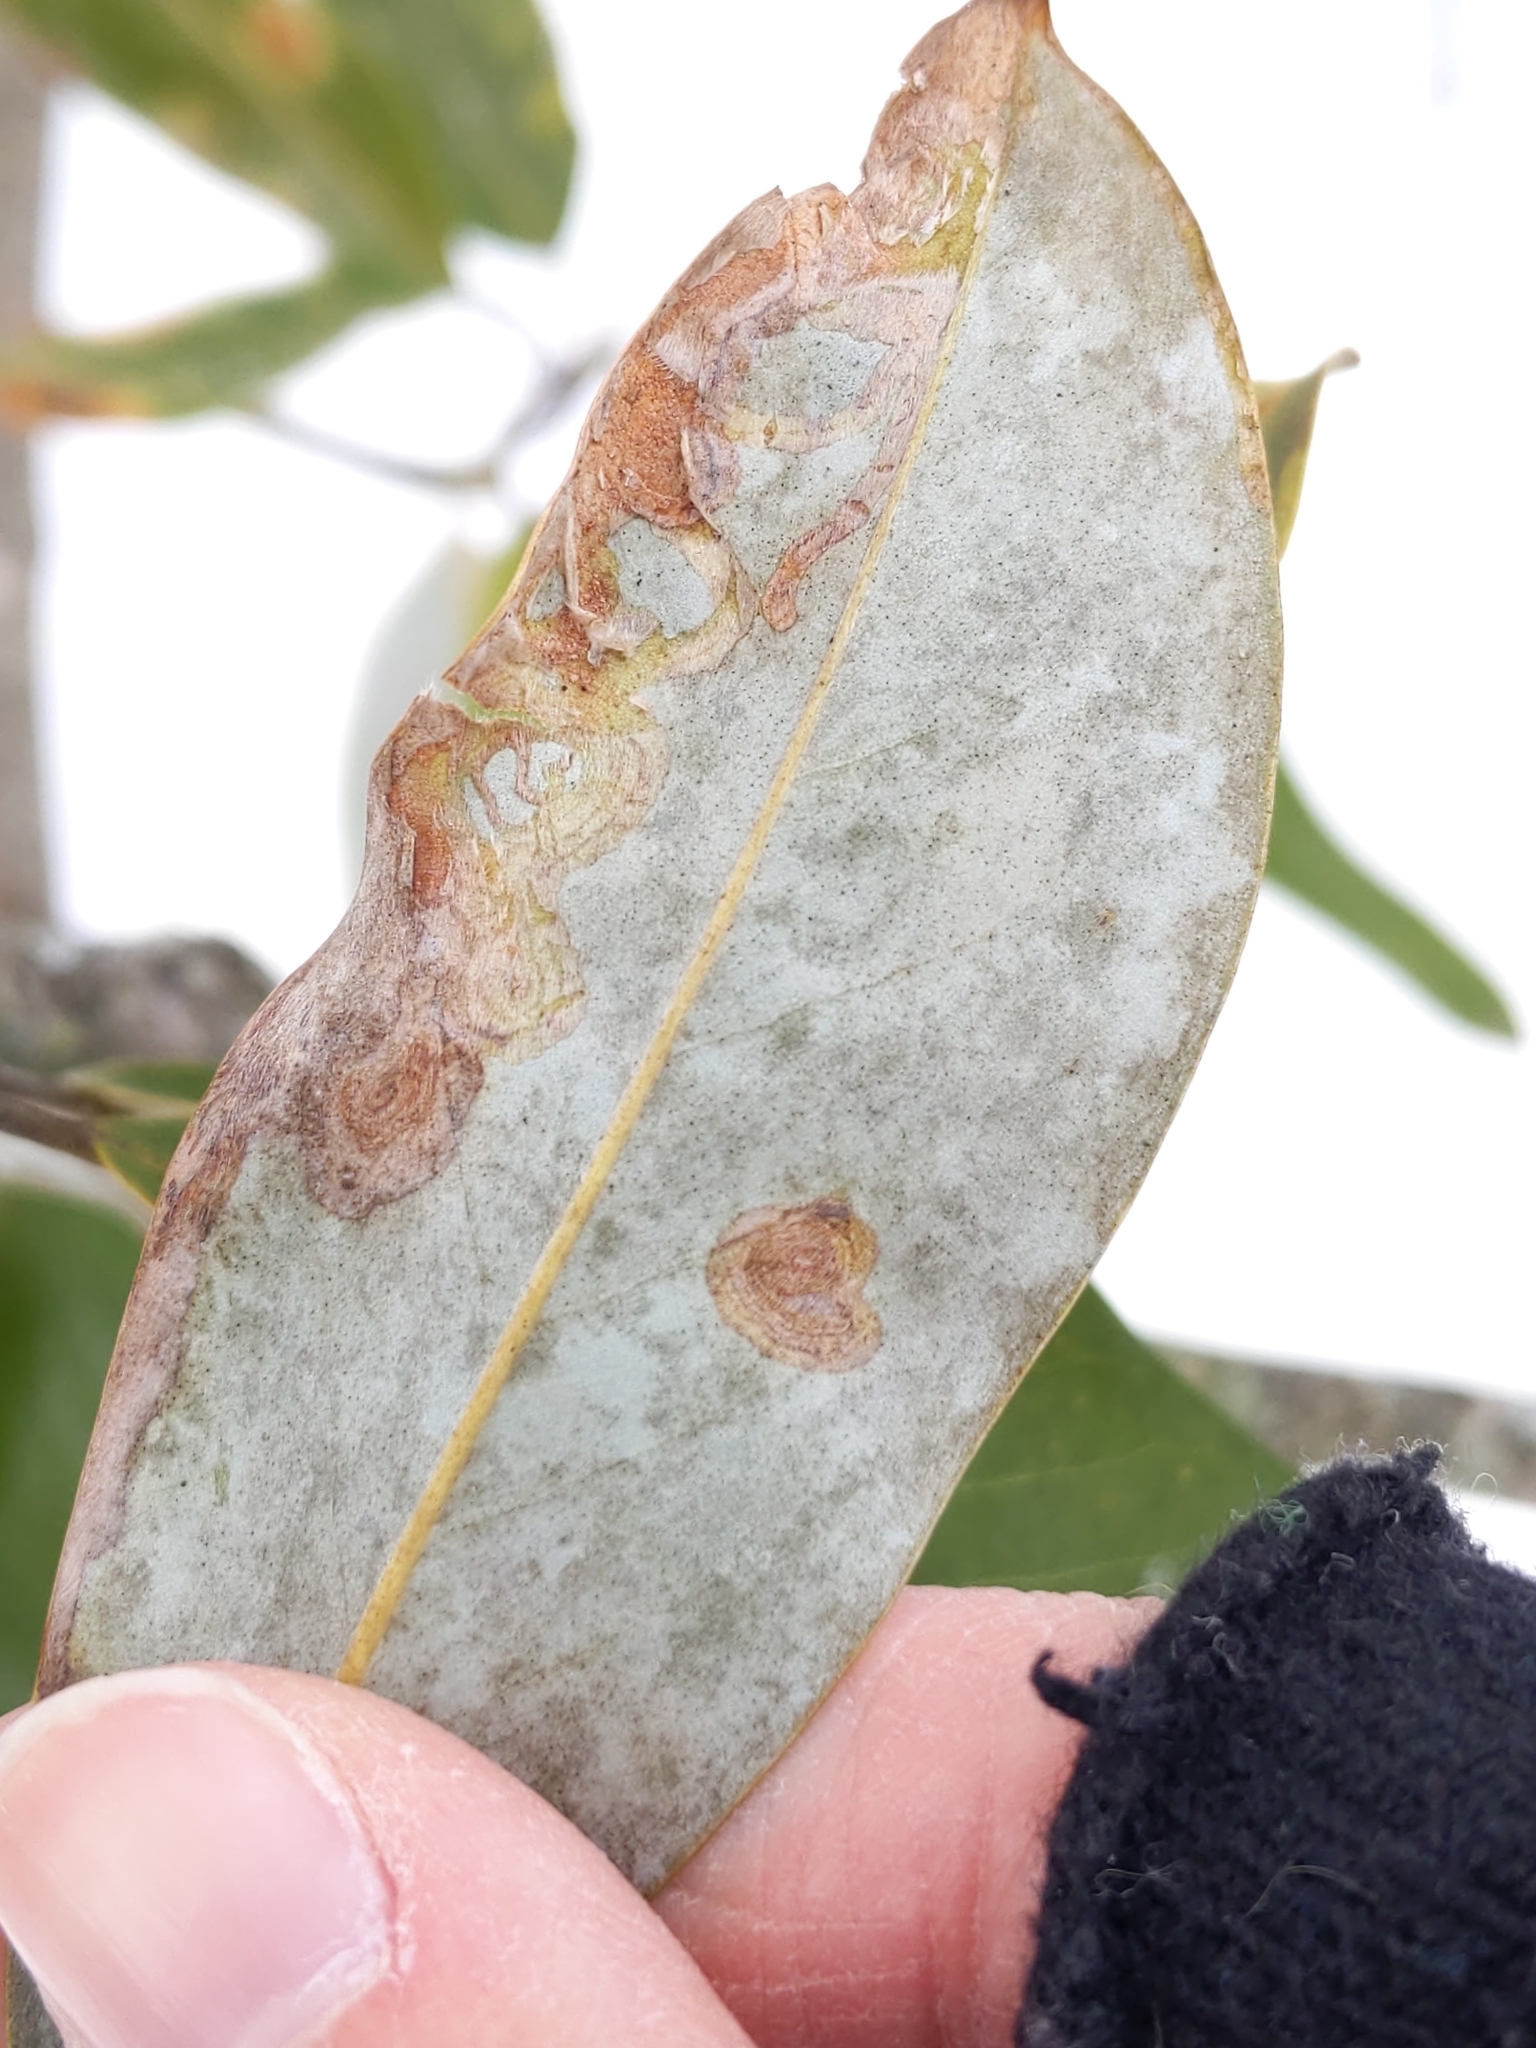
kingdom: Animalia
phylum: Arthropoda
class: Insecta
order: Lepidoptera
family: Gracillariidae
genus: Phyllocnistis
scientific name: Phyllocnistis liriodendronella
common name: Tulip tree leaf miner
